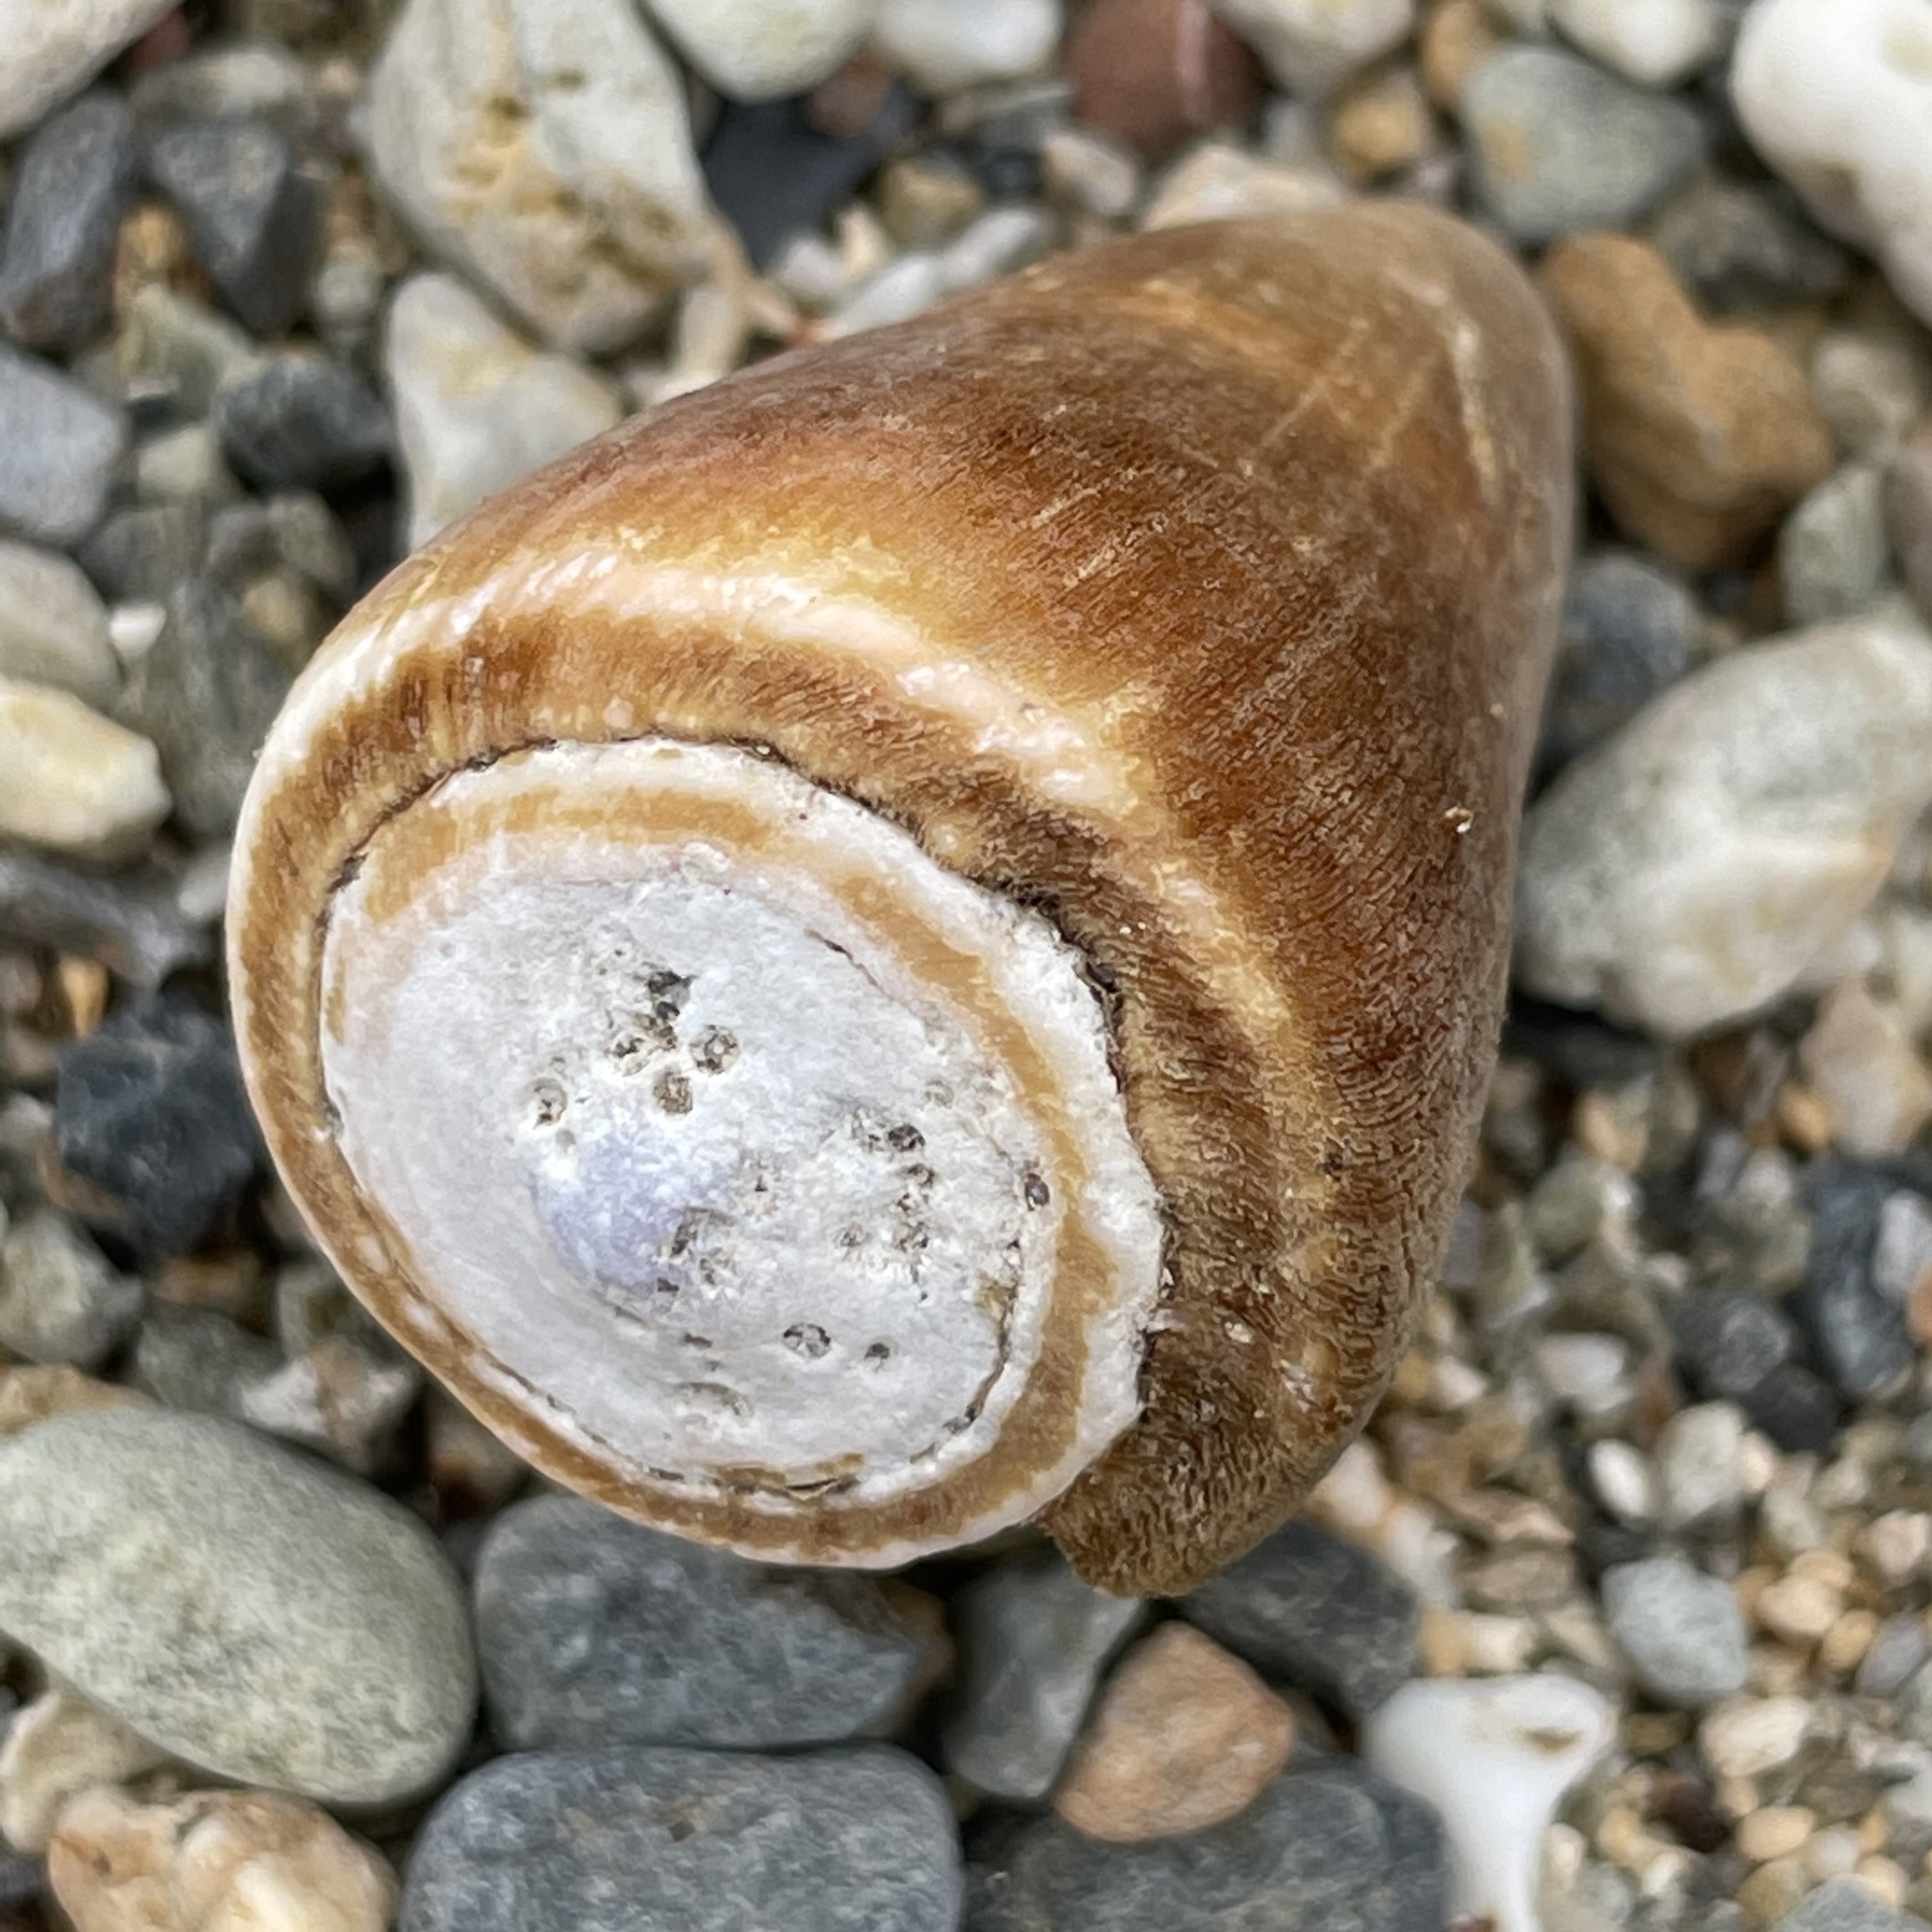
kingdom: Animalia
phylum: Mollusca
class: Gastropoda
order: Neogastropoda
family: Conidae
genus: Conus
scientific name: Conus flavidus
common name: Golden-yellow cone
